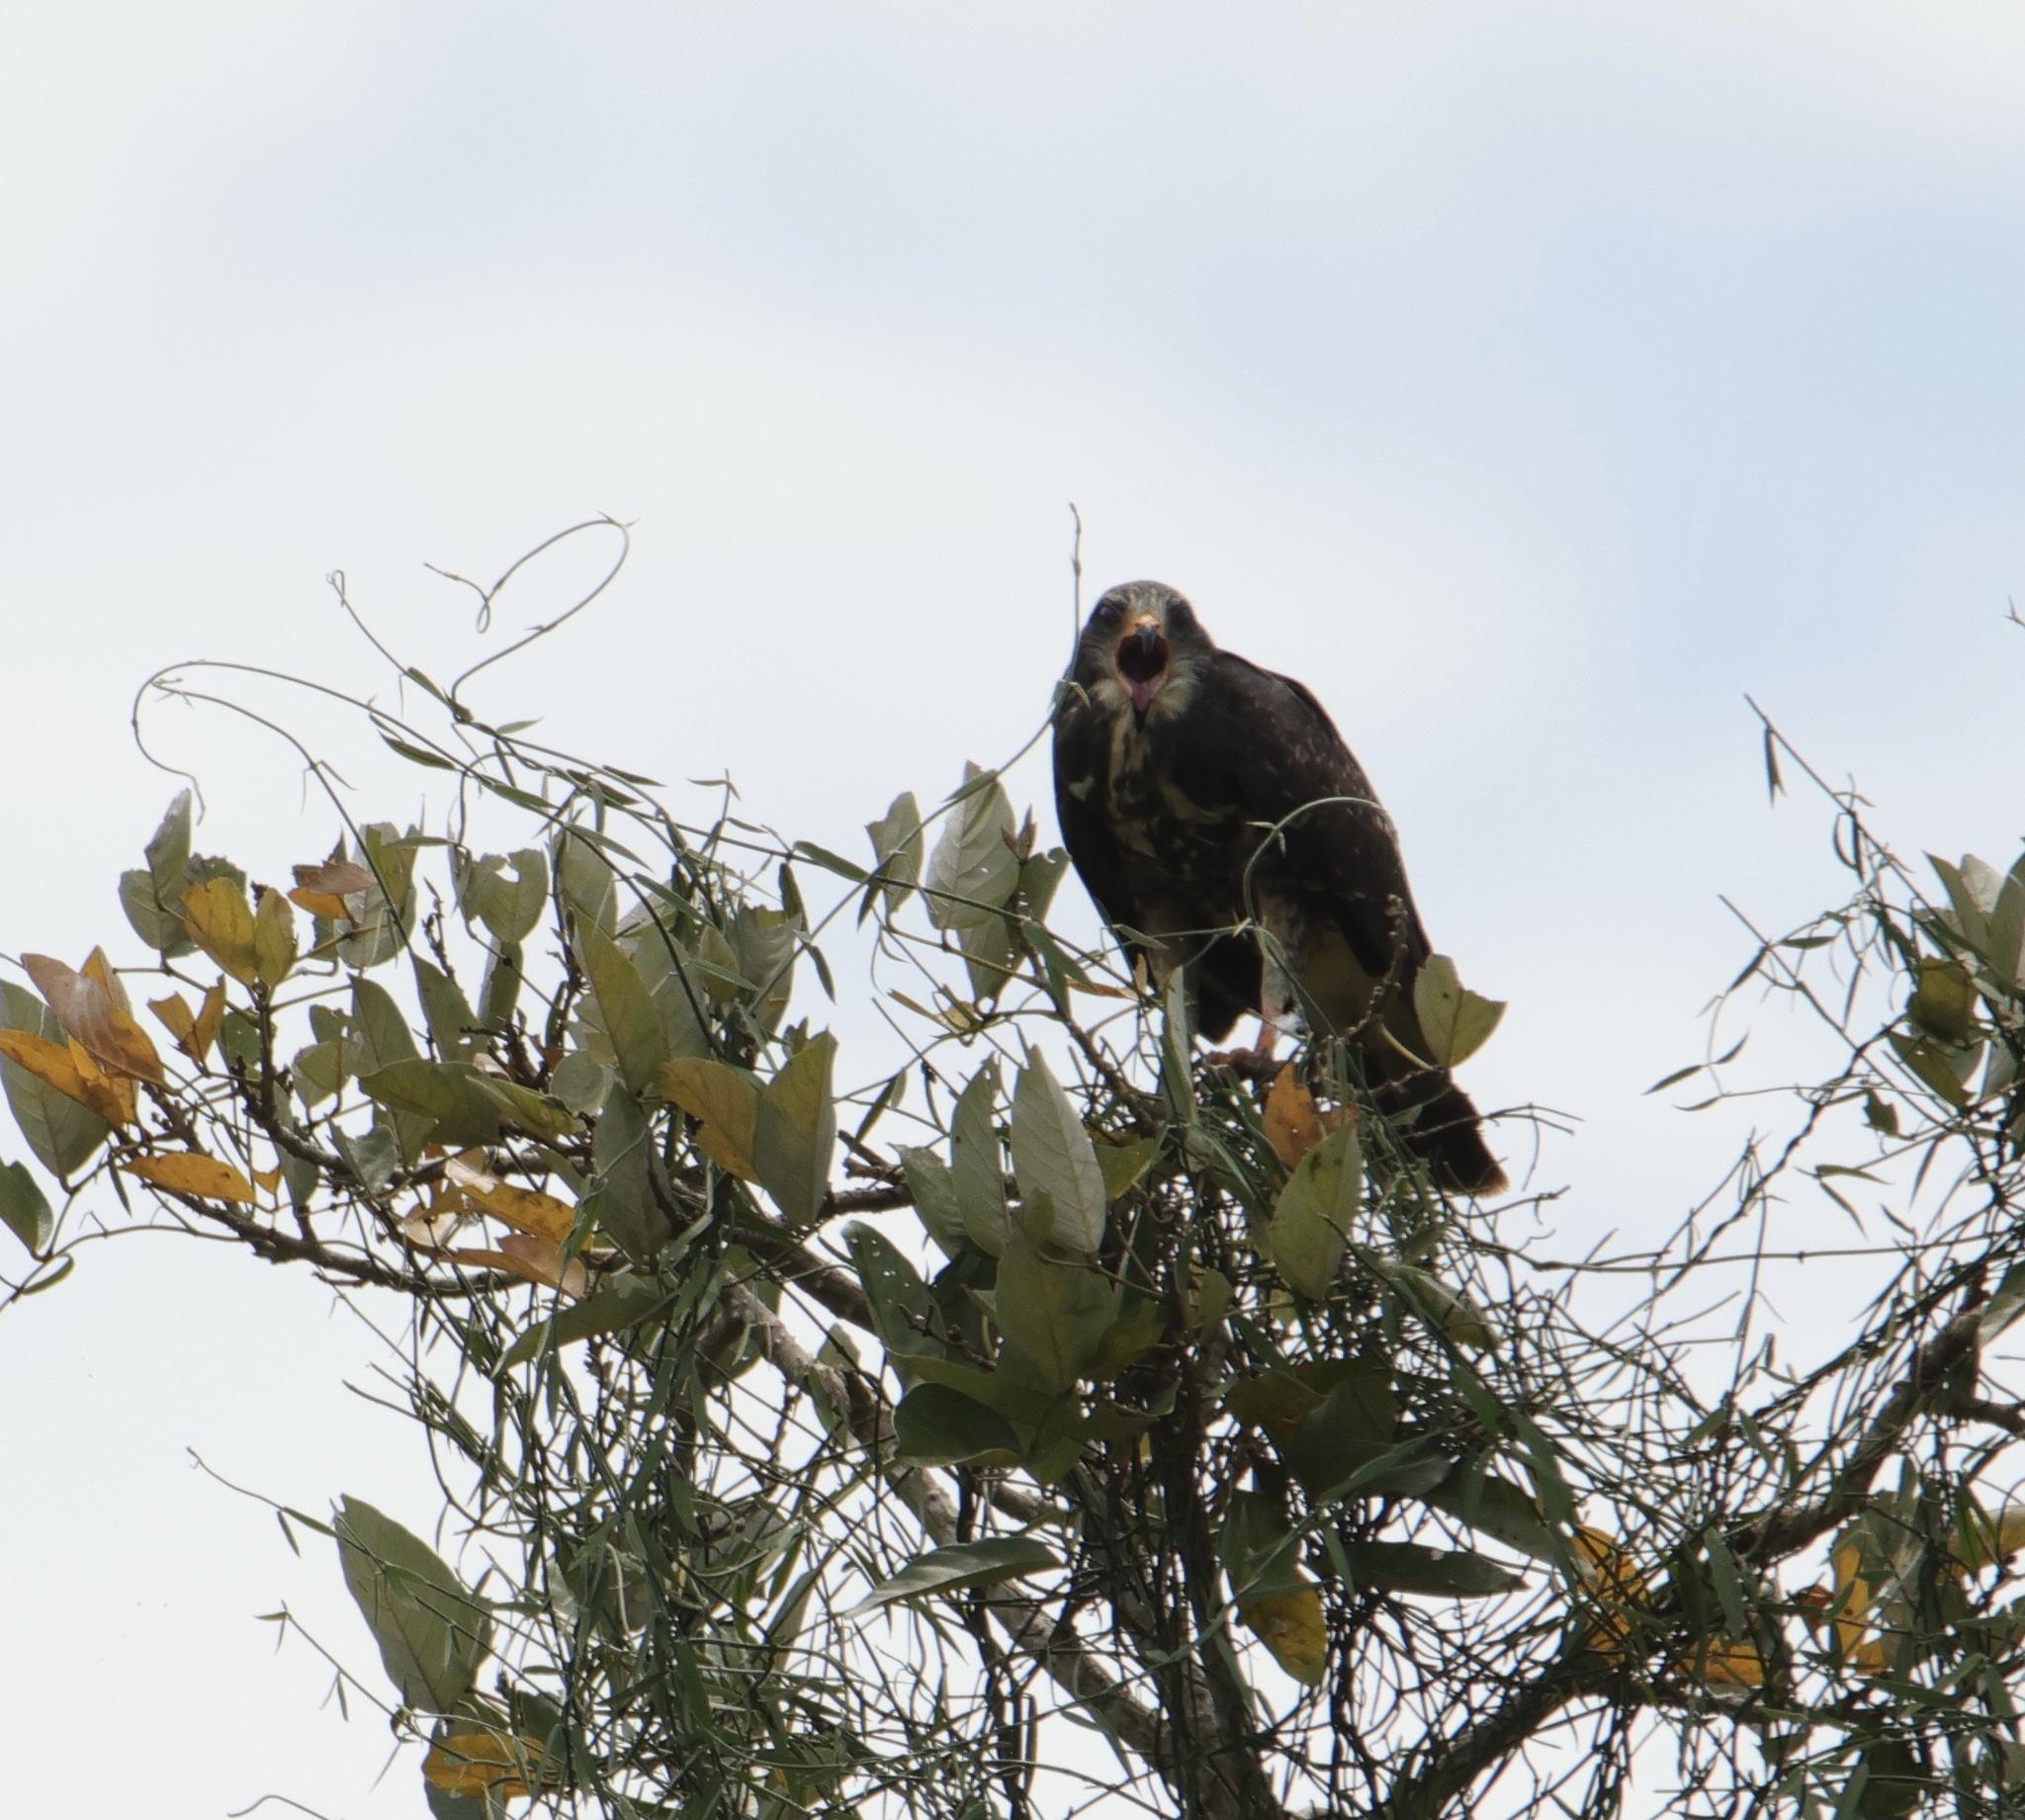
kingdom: Animalia
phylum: Chordata
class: Aves
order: Accipitriformes
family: Accipitridae
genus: Rostrhamus
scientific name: Rostrhamus sociabilis
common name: Snail kite
